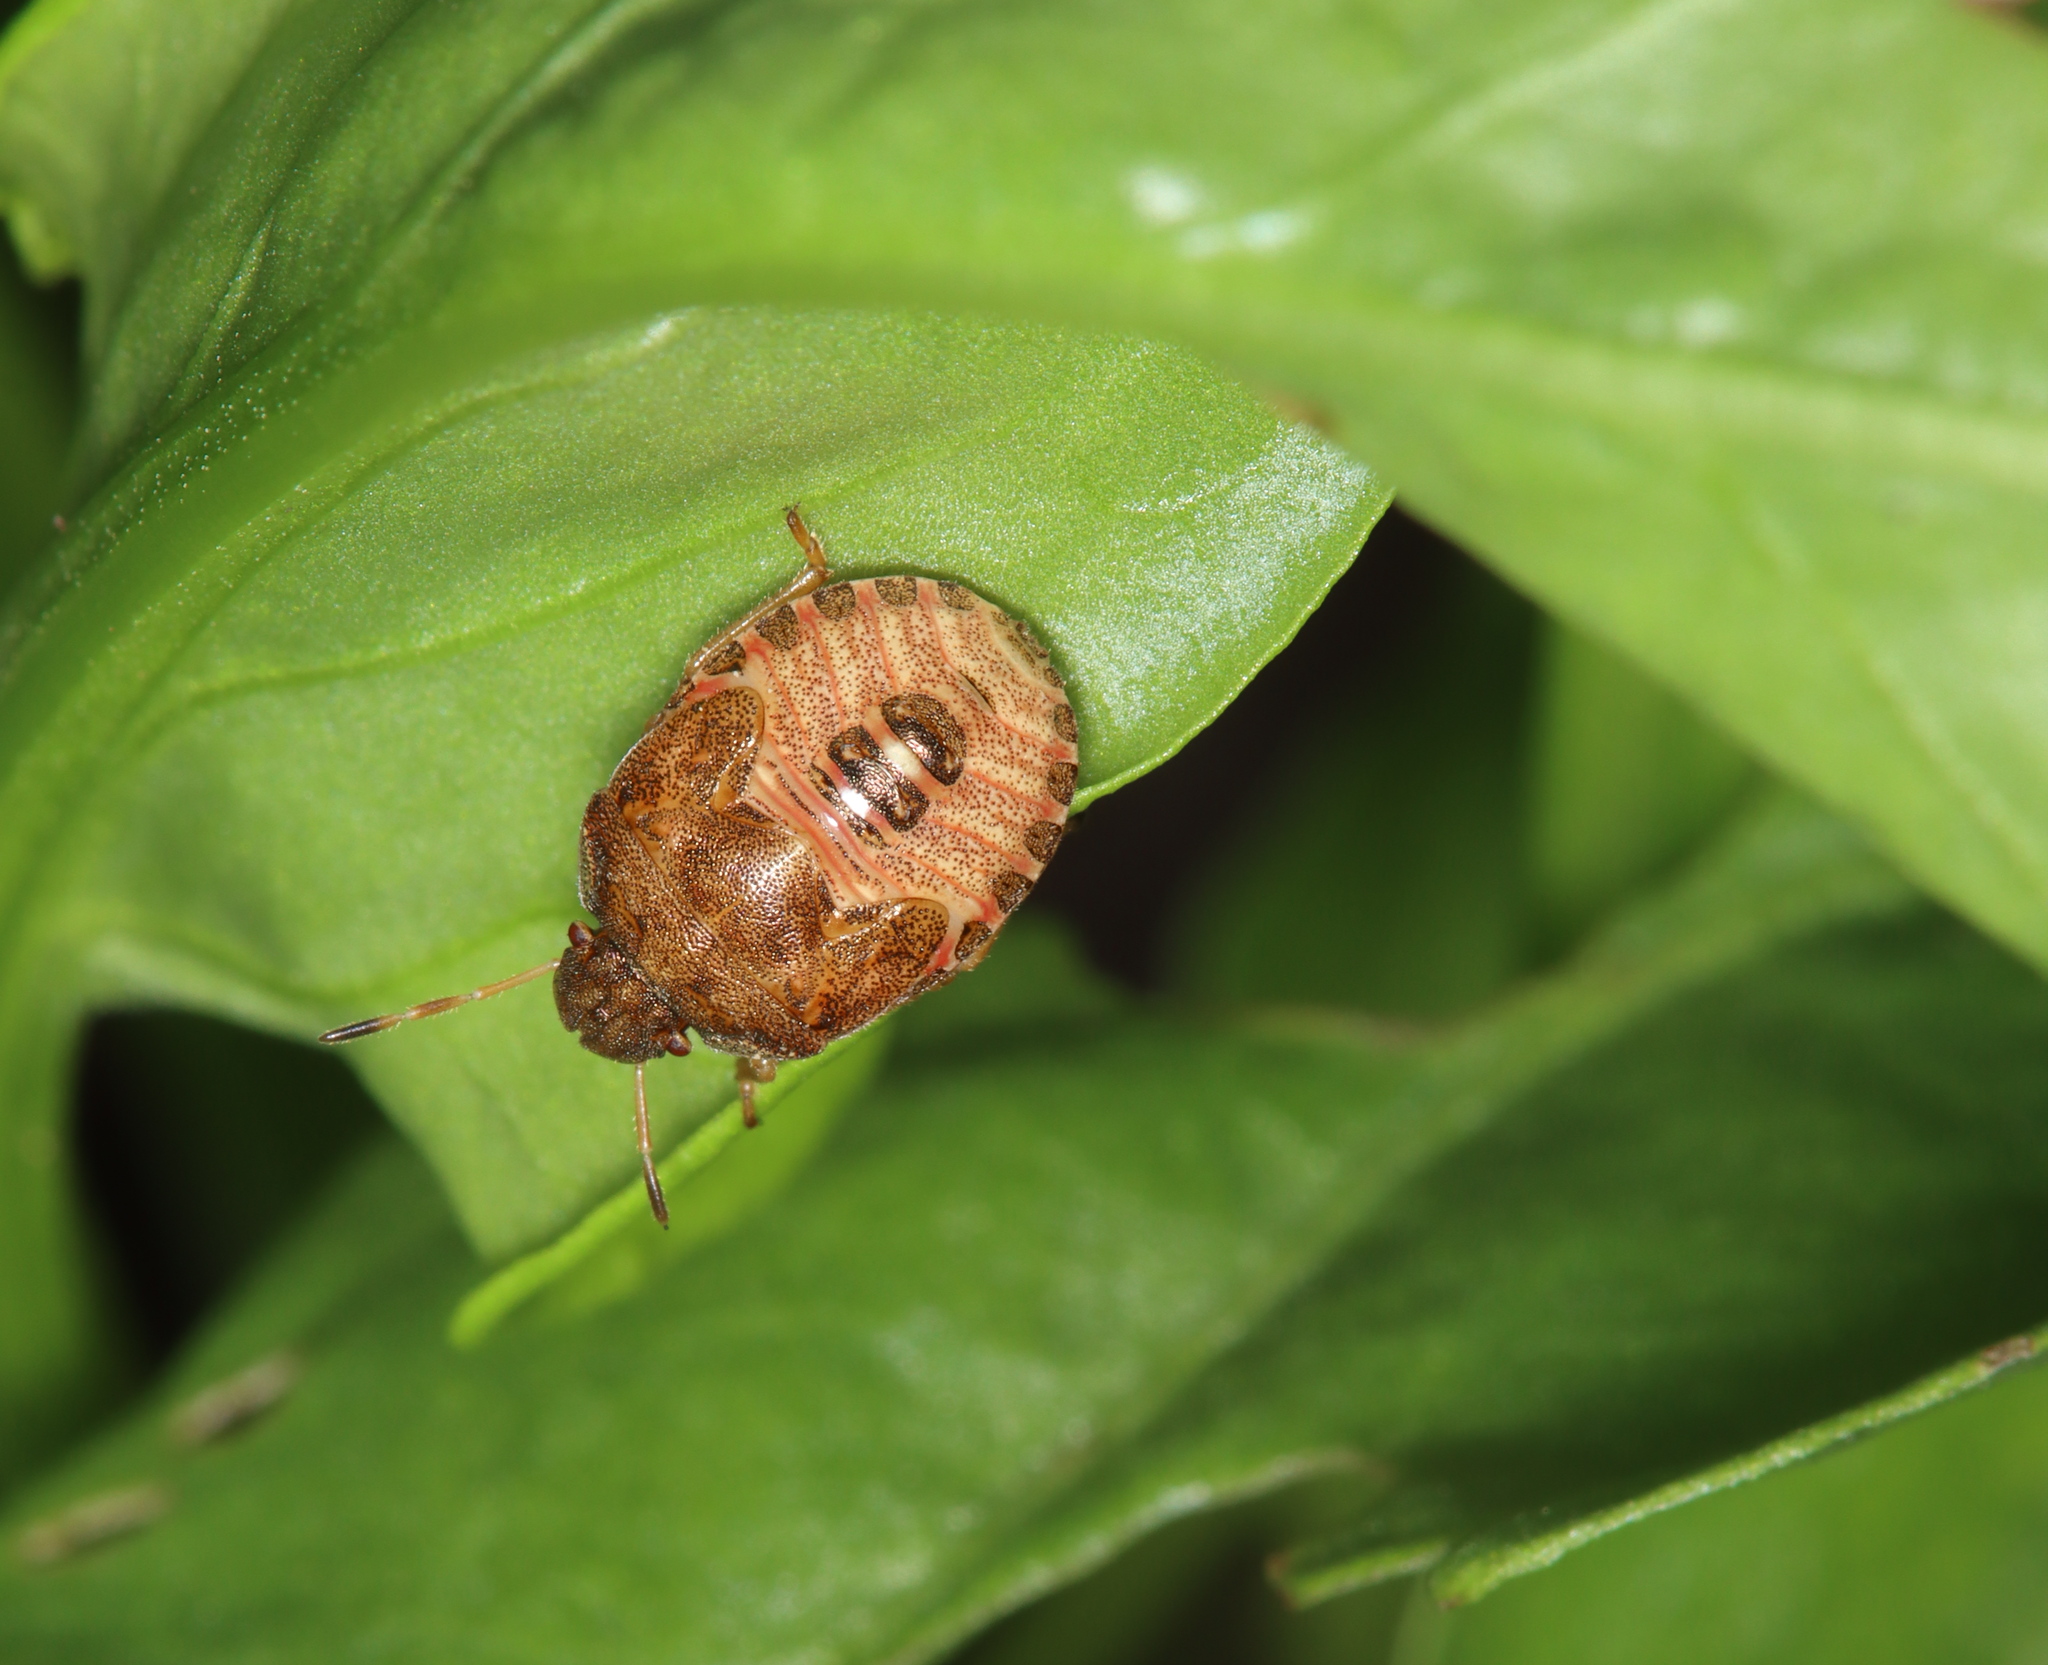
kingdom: Animalia
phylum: Arthropoda
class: Insecta
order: Hemiptera
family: Pentatomidae
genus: Holcostethus
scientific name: Holcostethus strictus
